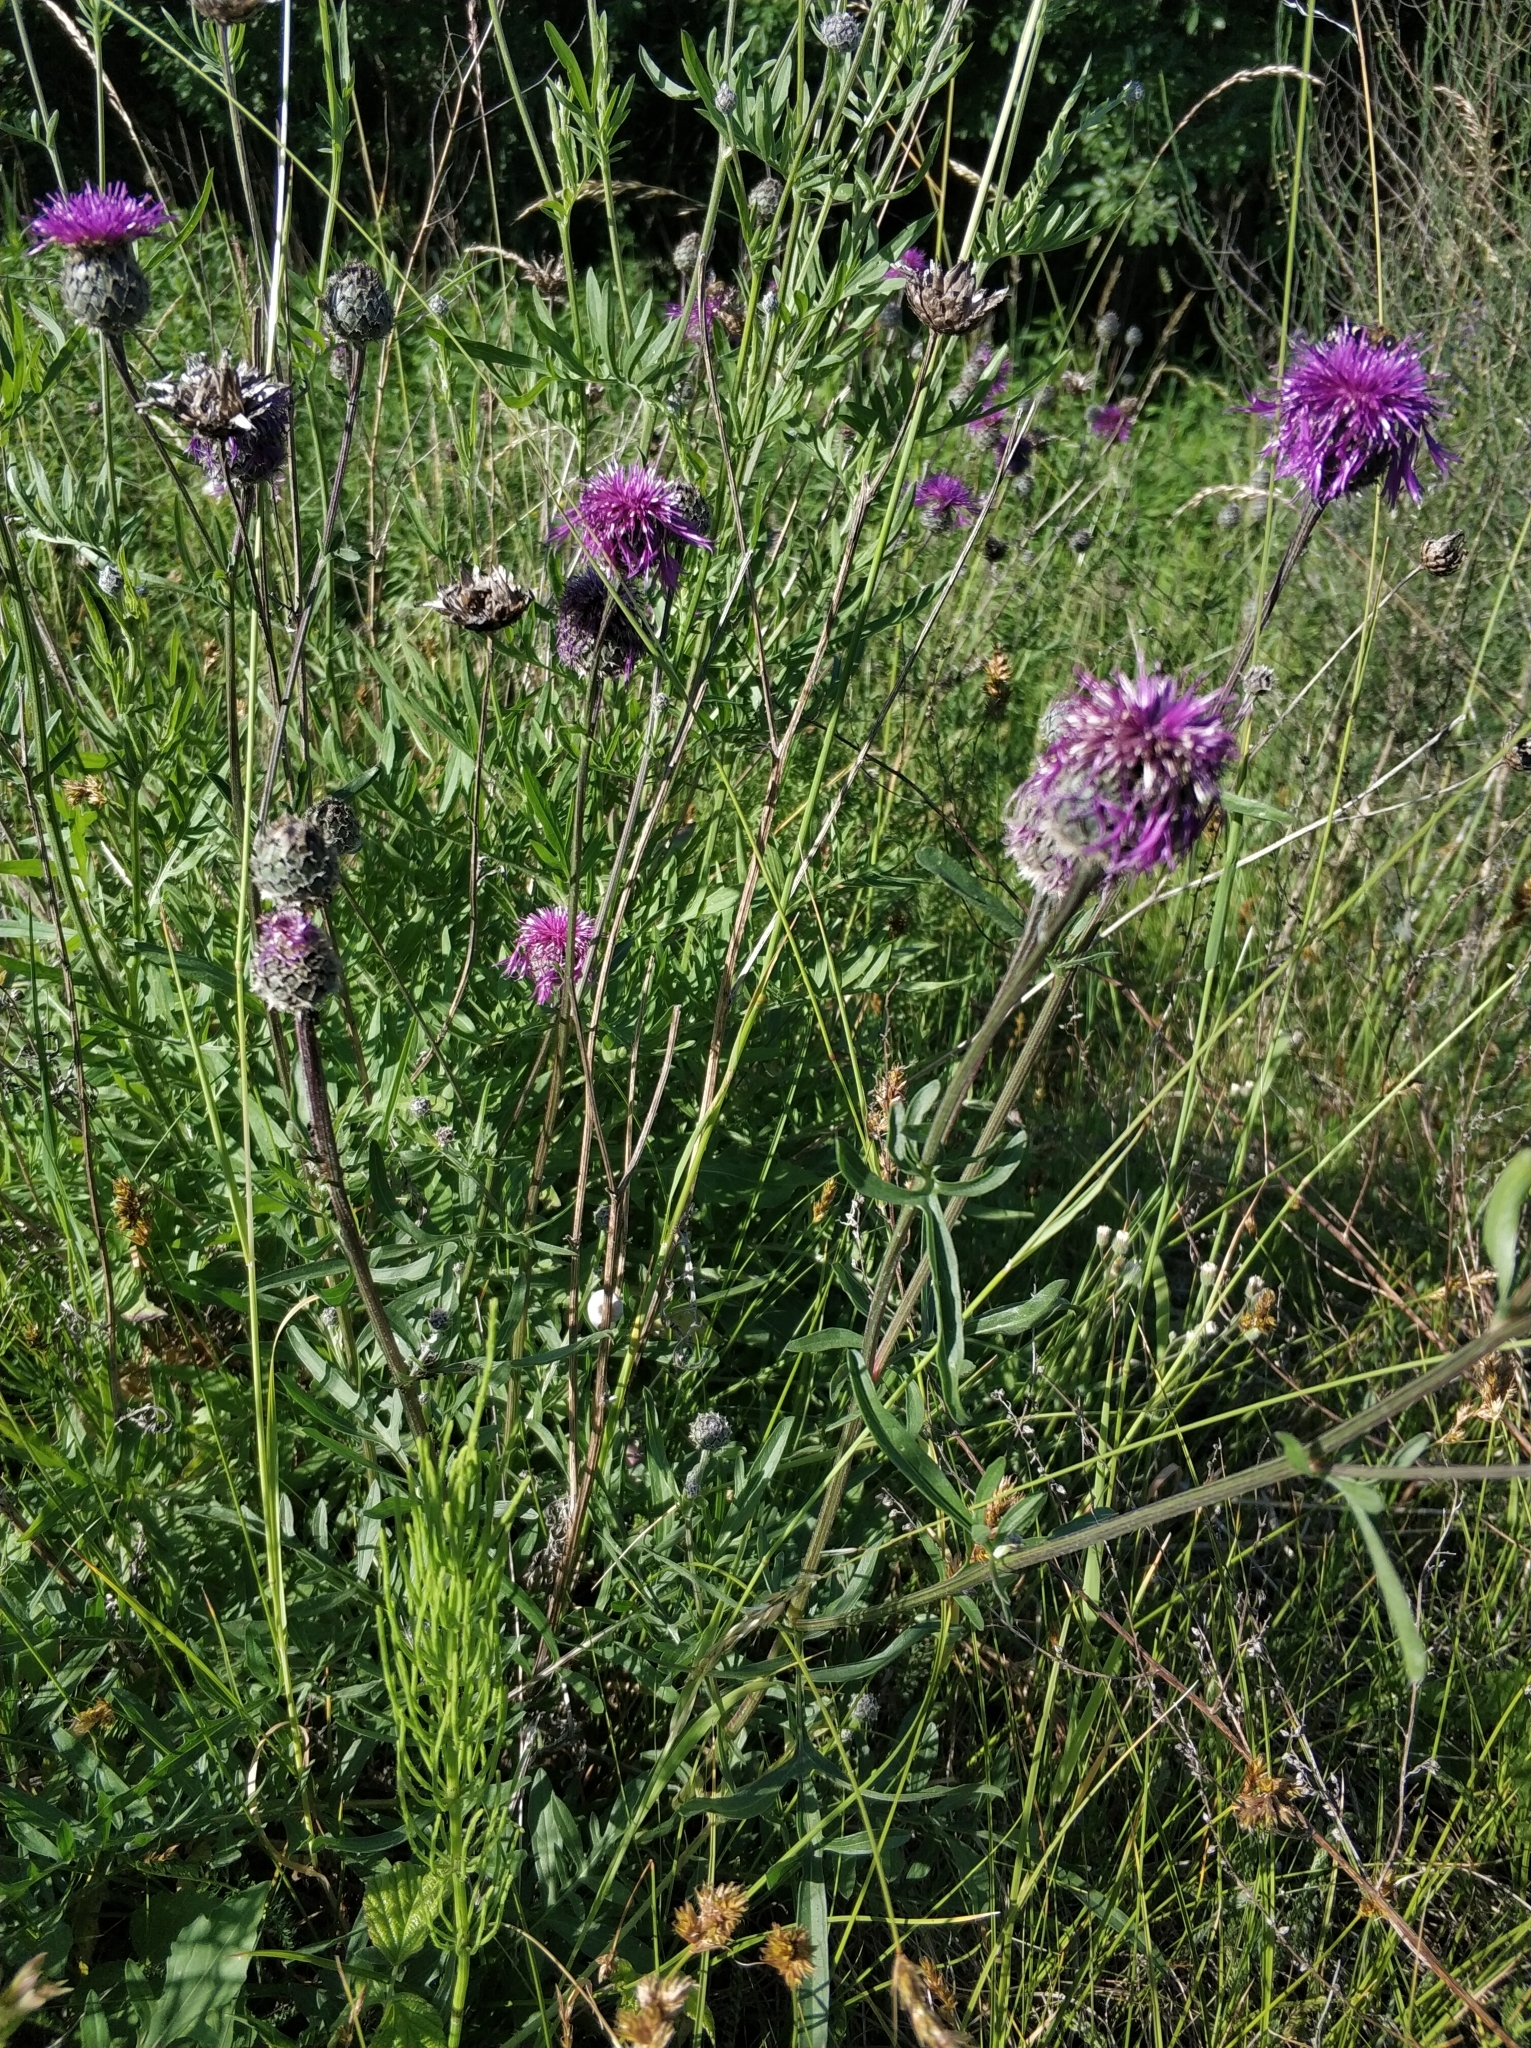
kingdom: Plantae
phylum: Tracheophyta
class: Magnoliopsida
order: Asterales
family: Asteraceae
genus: Centaurea
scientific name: Centaurea scabiosa
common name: Greater knapweed
